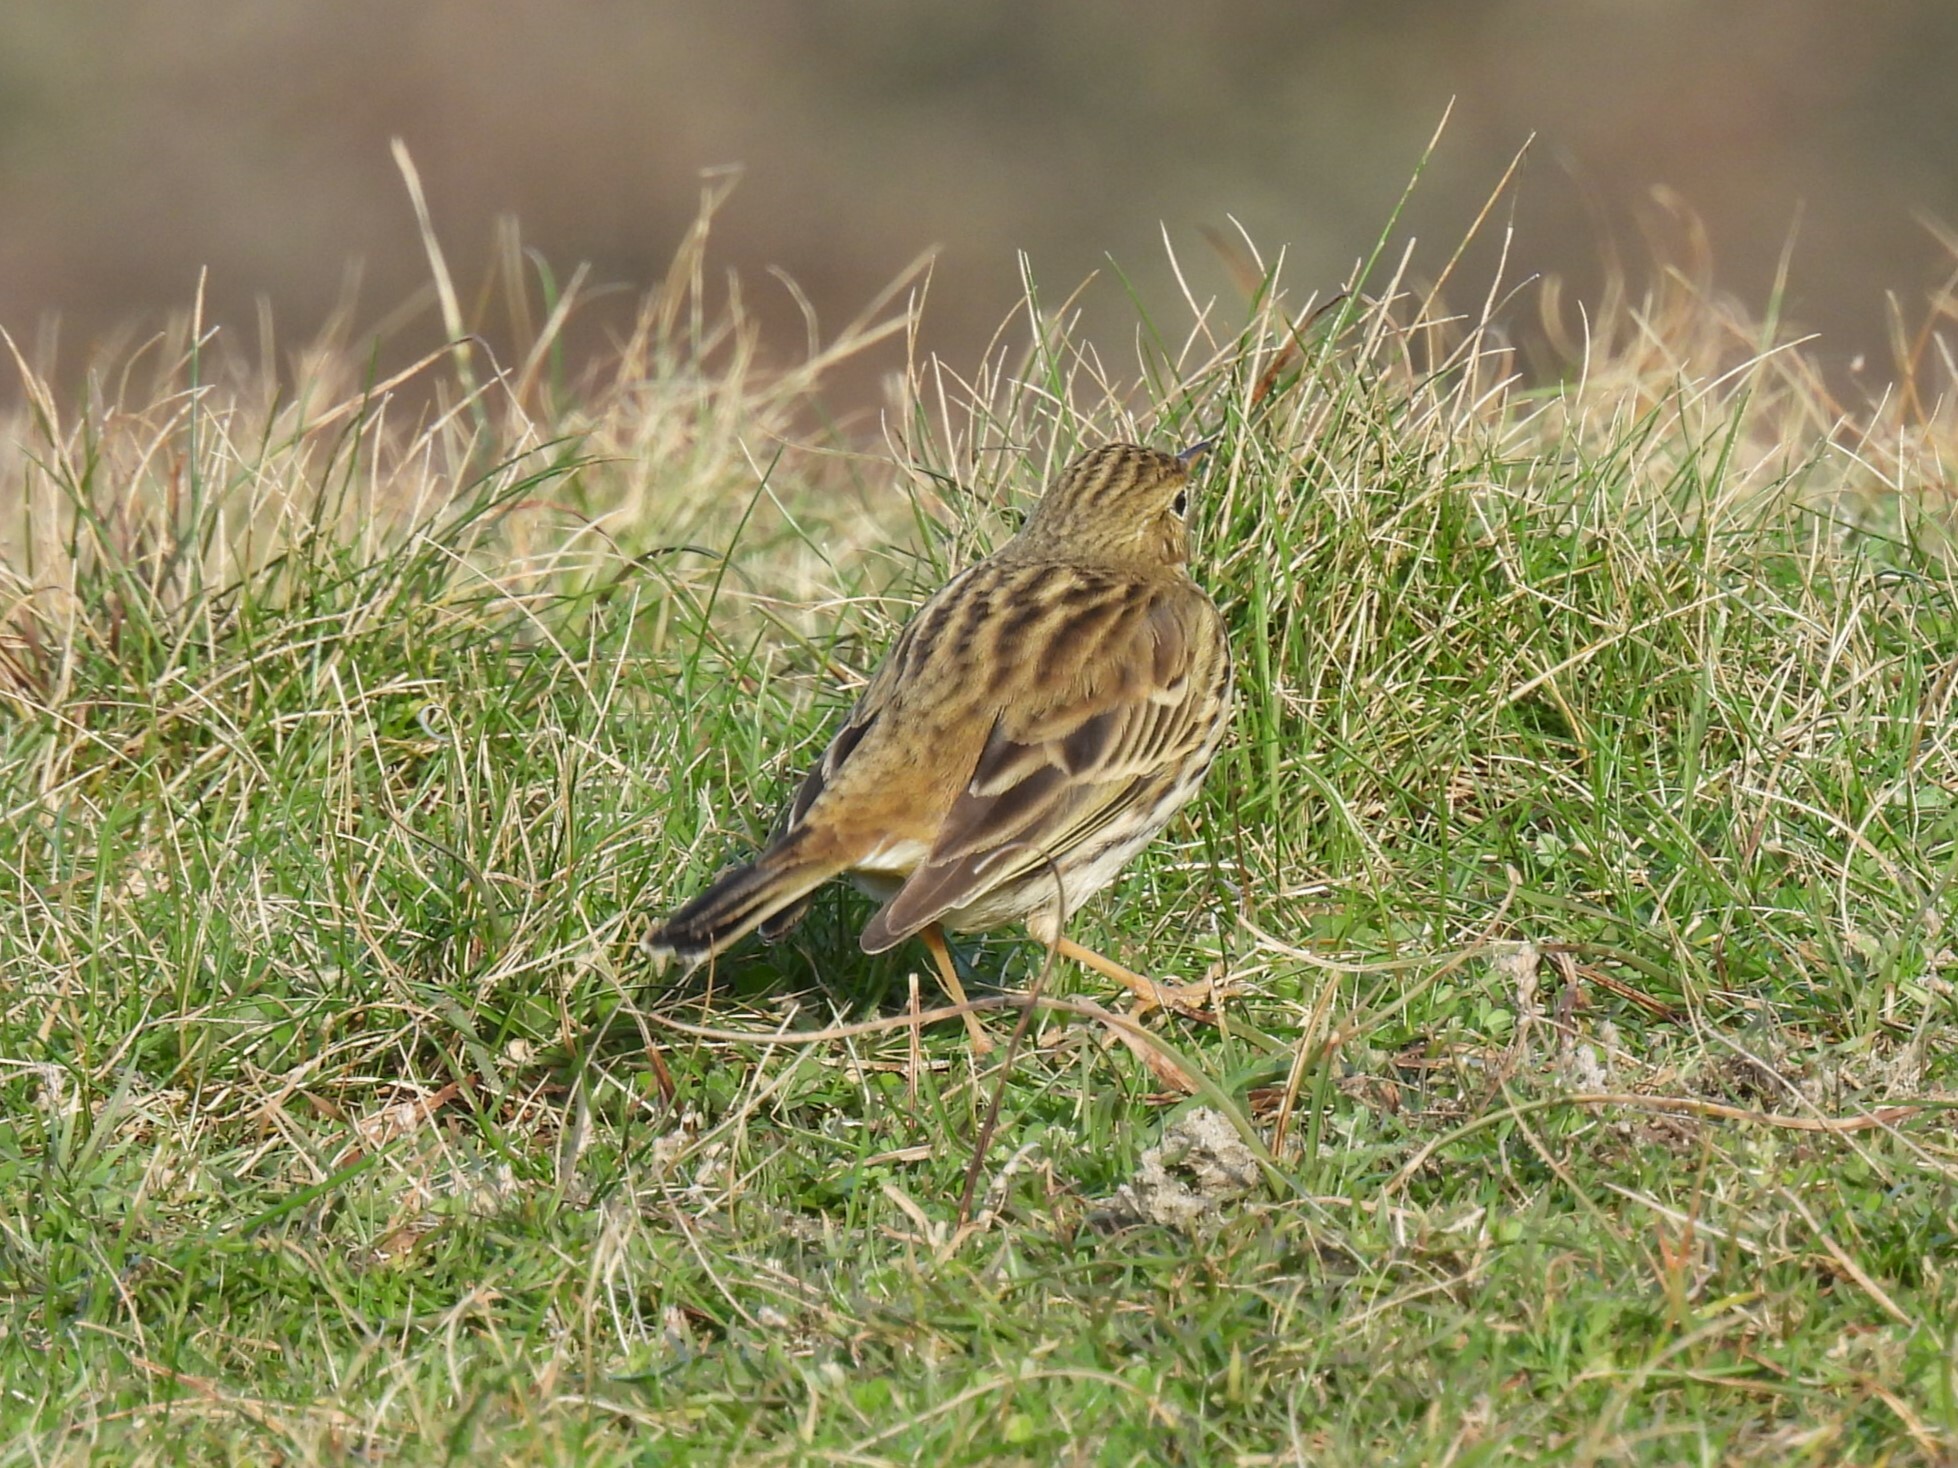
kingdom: Animalia
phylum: Chordata
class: Aves
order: Passeriformes
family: Motacillidae
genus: Anthus
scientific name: Anthus pratensis
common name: Meadow pipit
